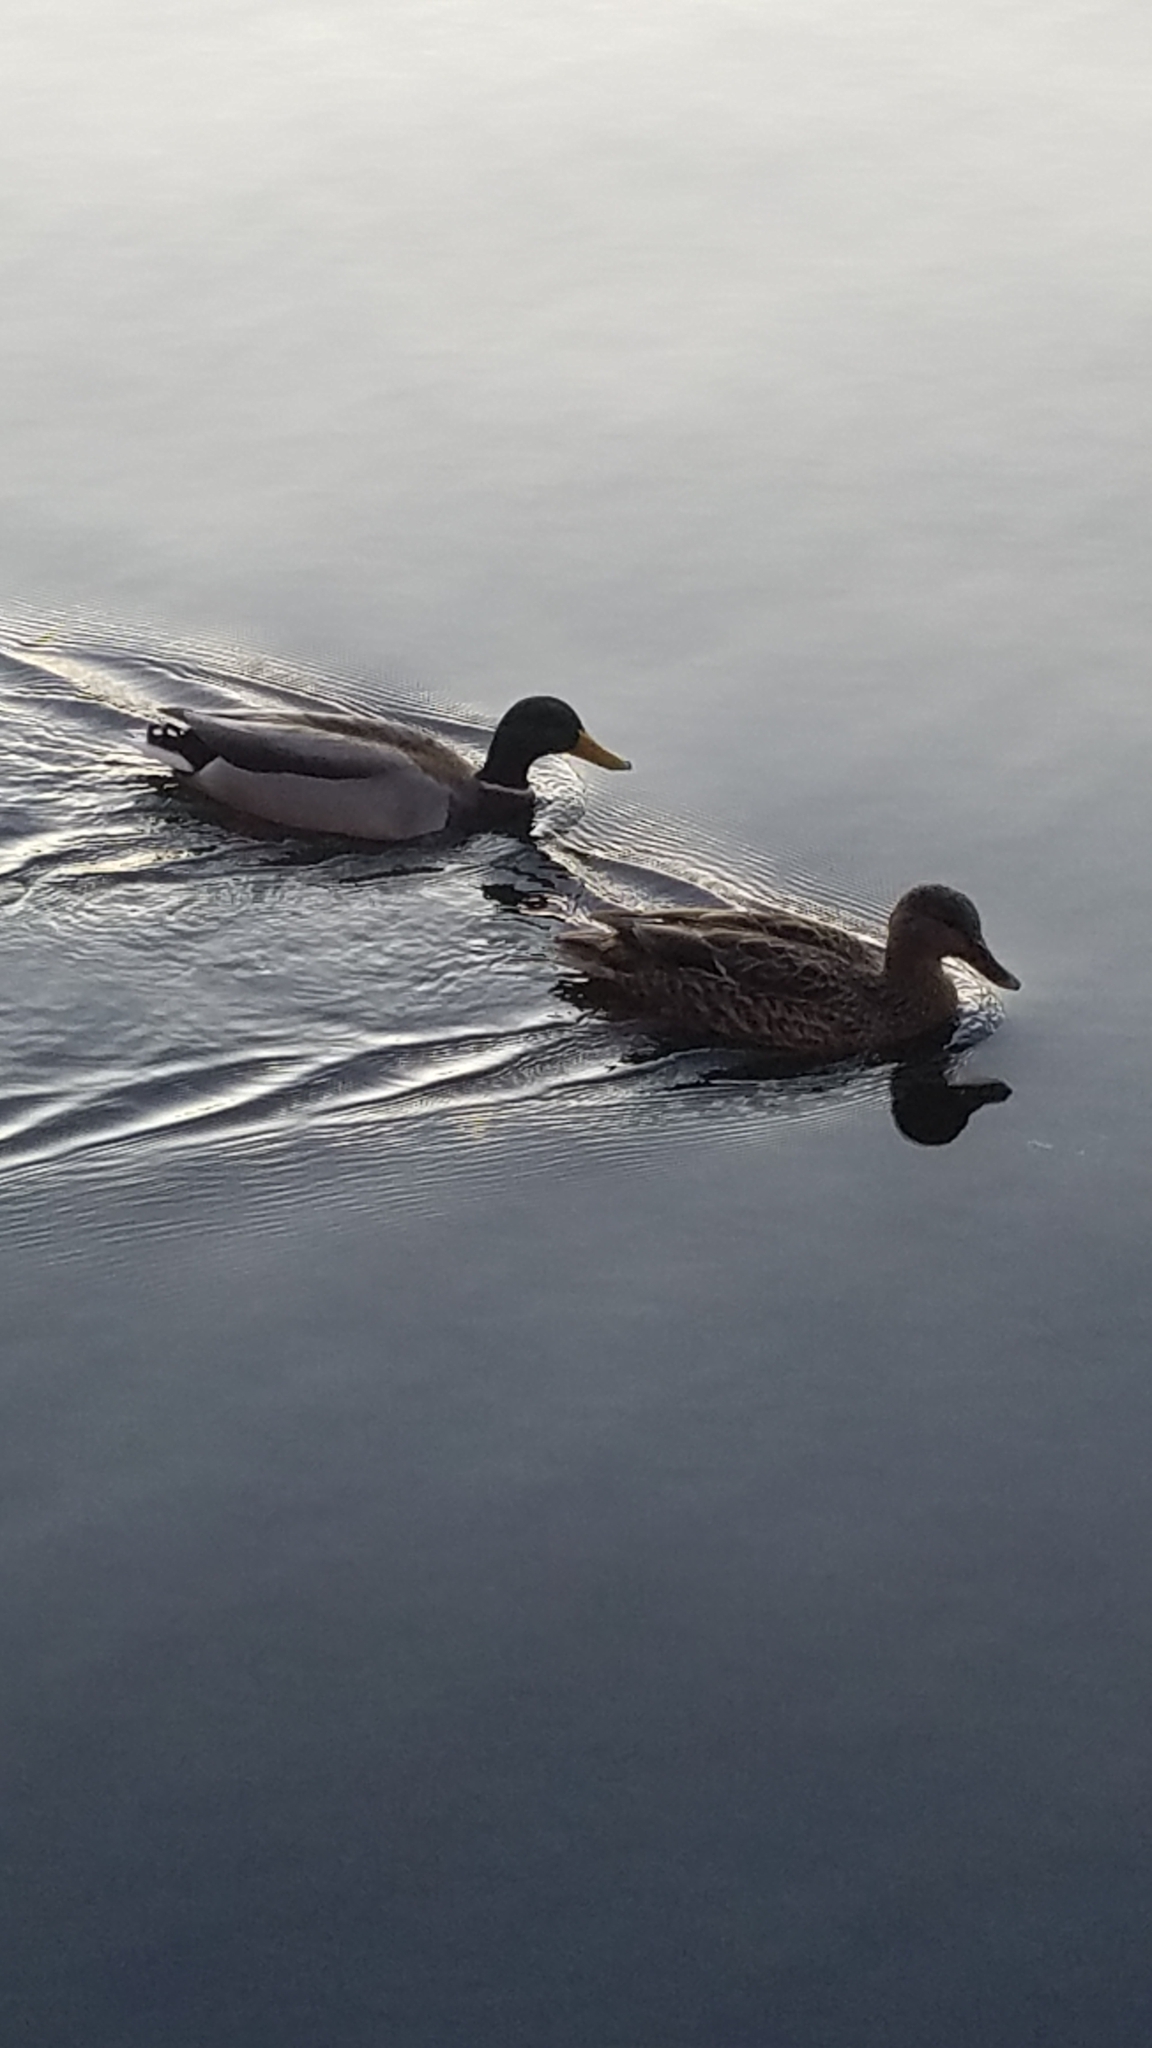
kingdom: Animalia
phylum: Chordata
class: Aves
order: Anseriformes
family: Anatidae
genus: Anas
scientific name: Anas platyrhynchos
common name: Mallard
